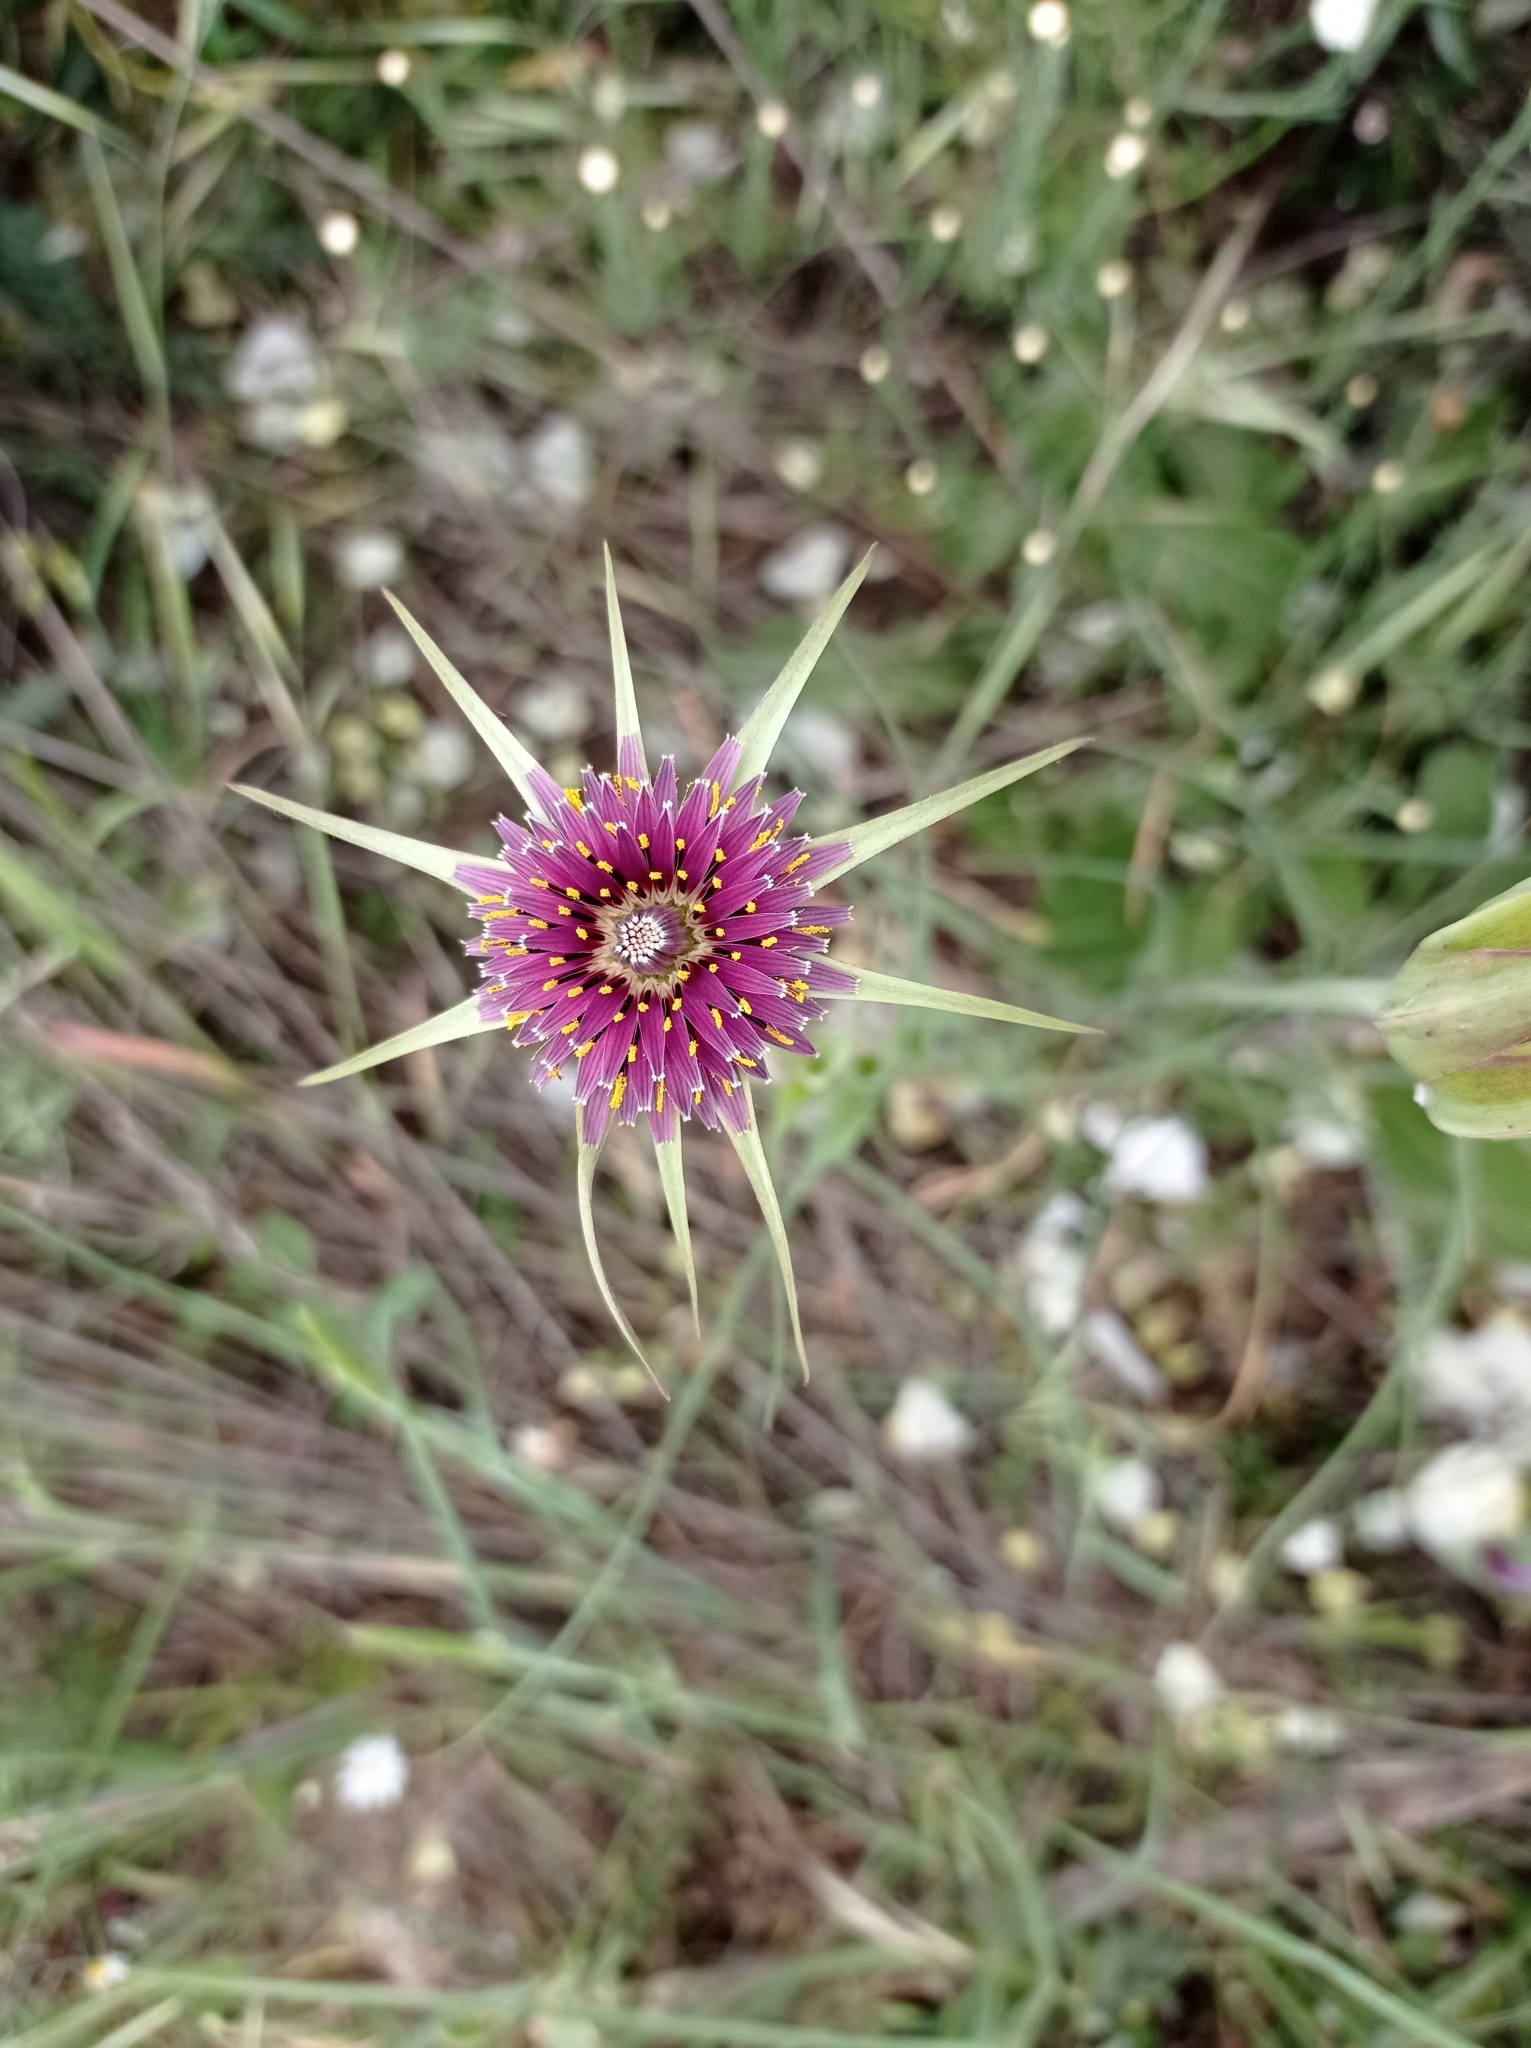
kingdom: Plantae
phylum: Tracheophyta
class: Magnoliopsida
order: Asterales
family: Asteraceae
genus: Tragopogon
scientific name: Tragopogon porrifolius
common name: Salsify
